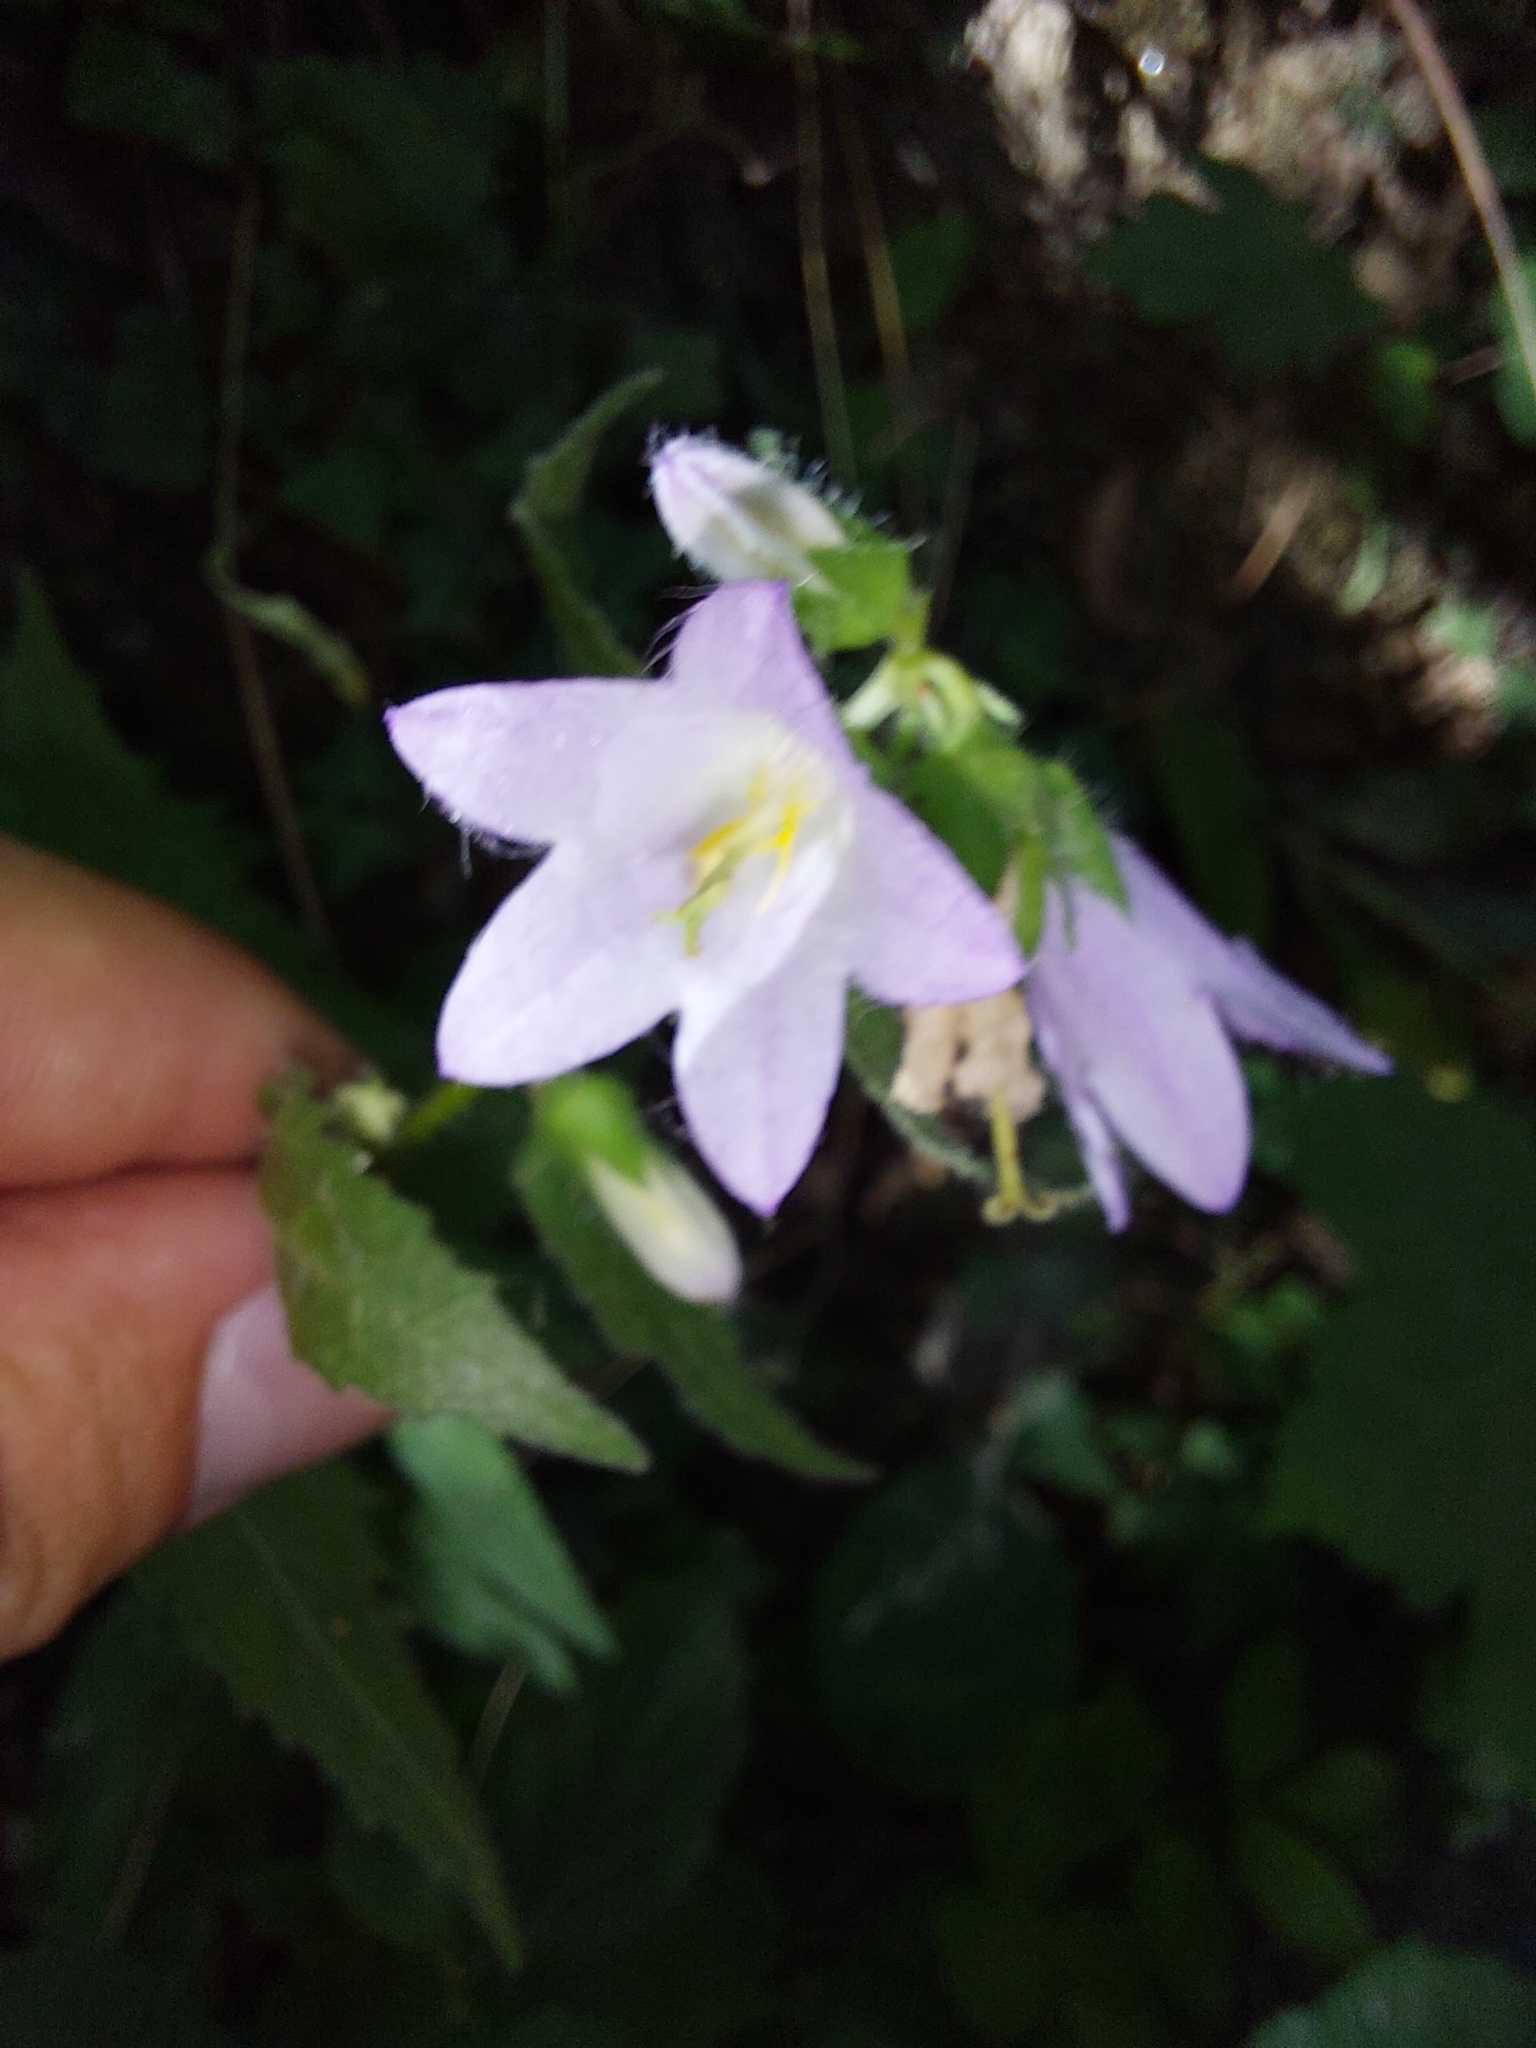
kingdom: Plantae
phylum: Tracheophyta
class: Magnoliopsida
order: Asterales
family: Campanulaceae
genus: Campanula
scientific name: Campanula trachelium
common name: Nettle-leaved bellflower
